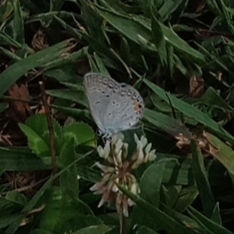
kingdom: Animalia
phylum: Arthropoda
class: Insecta
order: Lepidoptera
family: Lycaenidae
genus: Elkalyce
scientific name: Elkalyce comyntas
